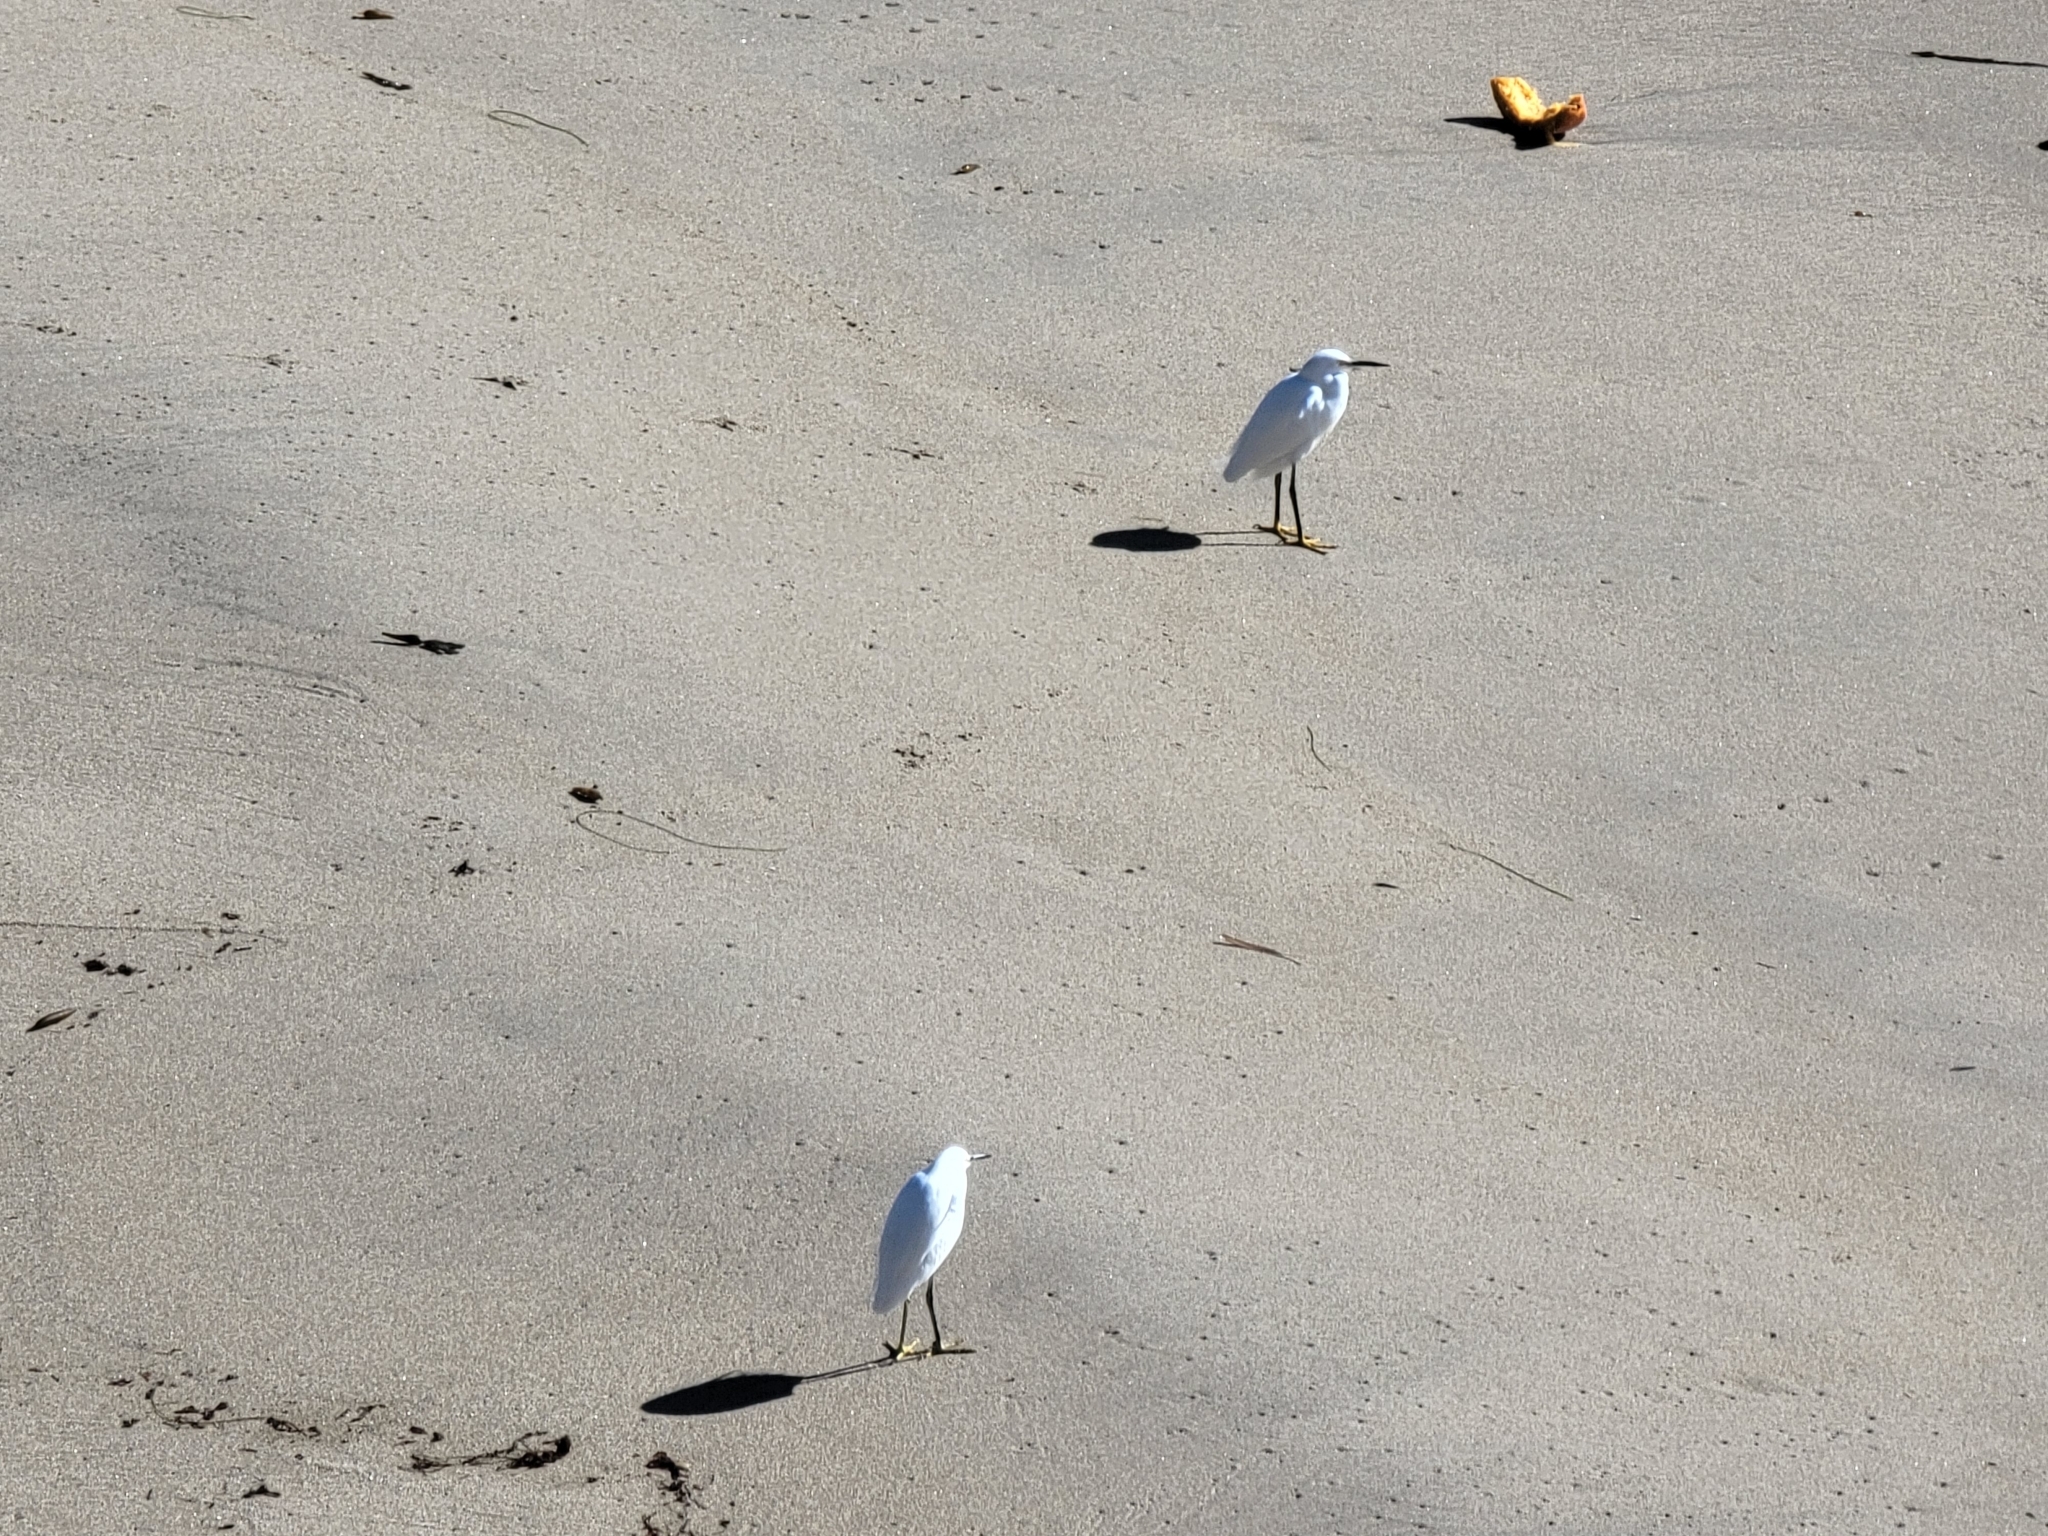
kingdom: Animalia
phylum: Chordata
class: Aves
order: Pelecaniformes
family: Ardeidae
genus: Egretta
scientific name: Egretta thula
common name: Snowy egret
